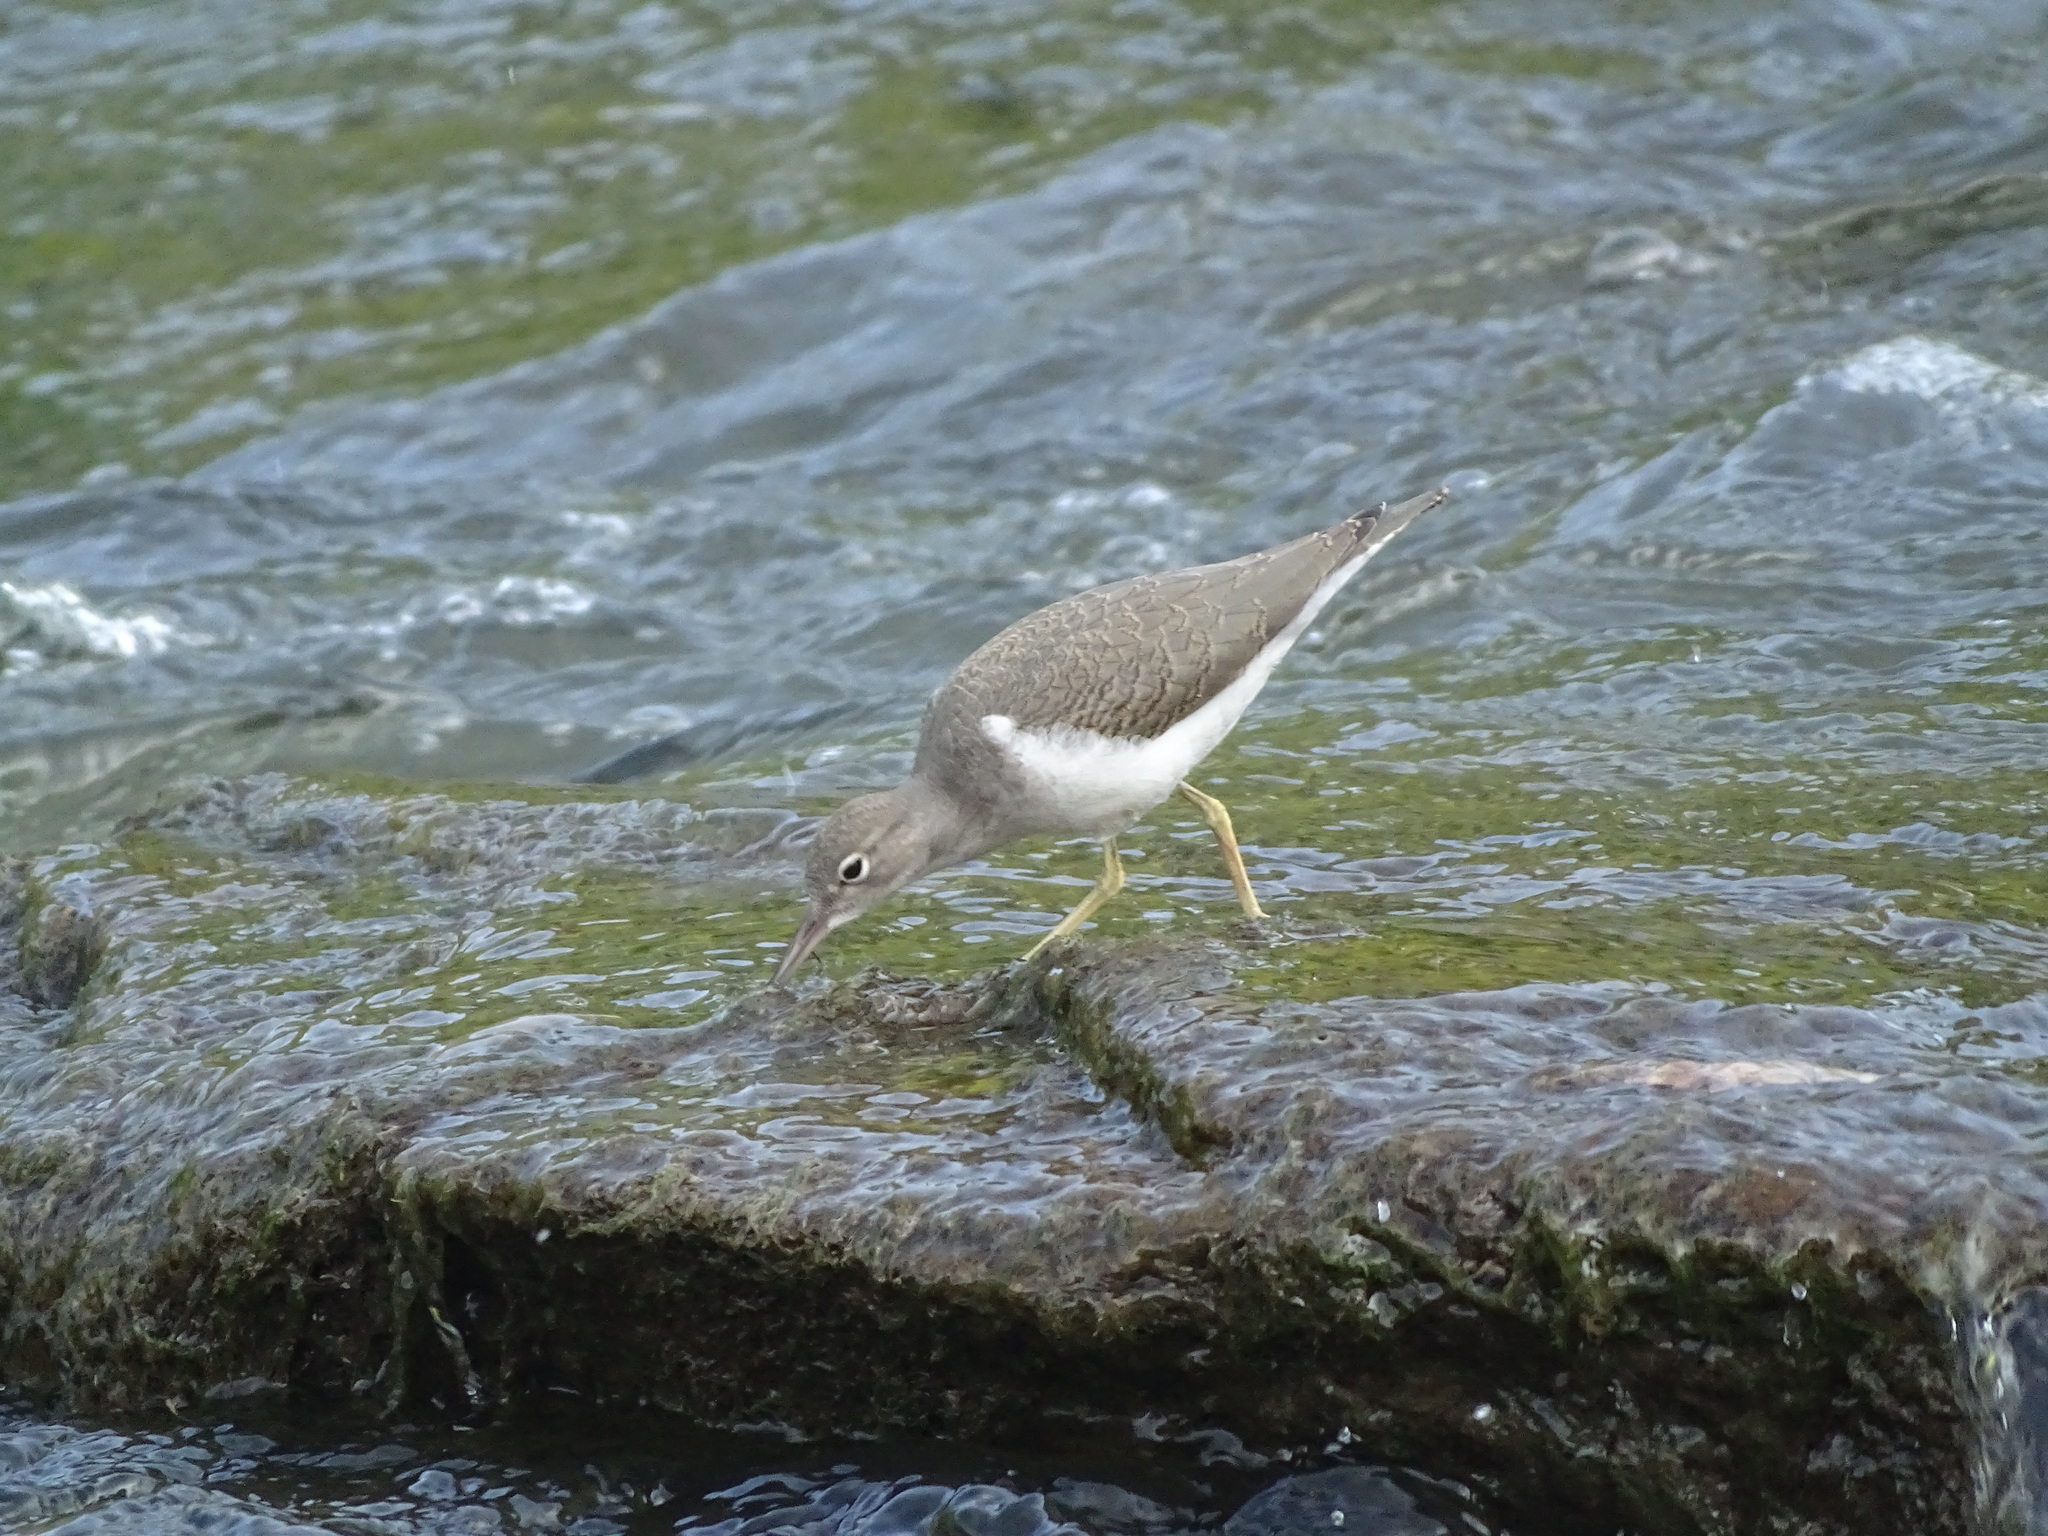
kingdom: Animalia
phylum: Chordata
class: Aves
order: Charadriiformes
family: Scolopacidae
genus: Actitis
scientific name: Actitis macularius
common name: Spotted sandpiper
